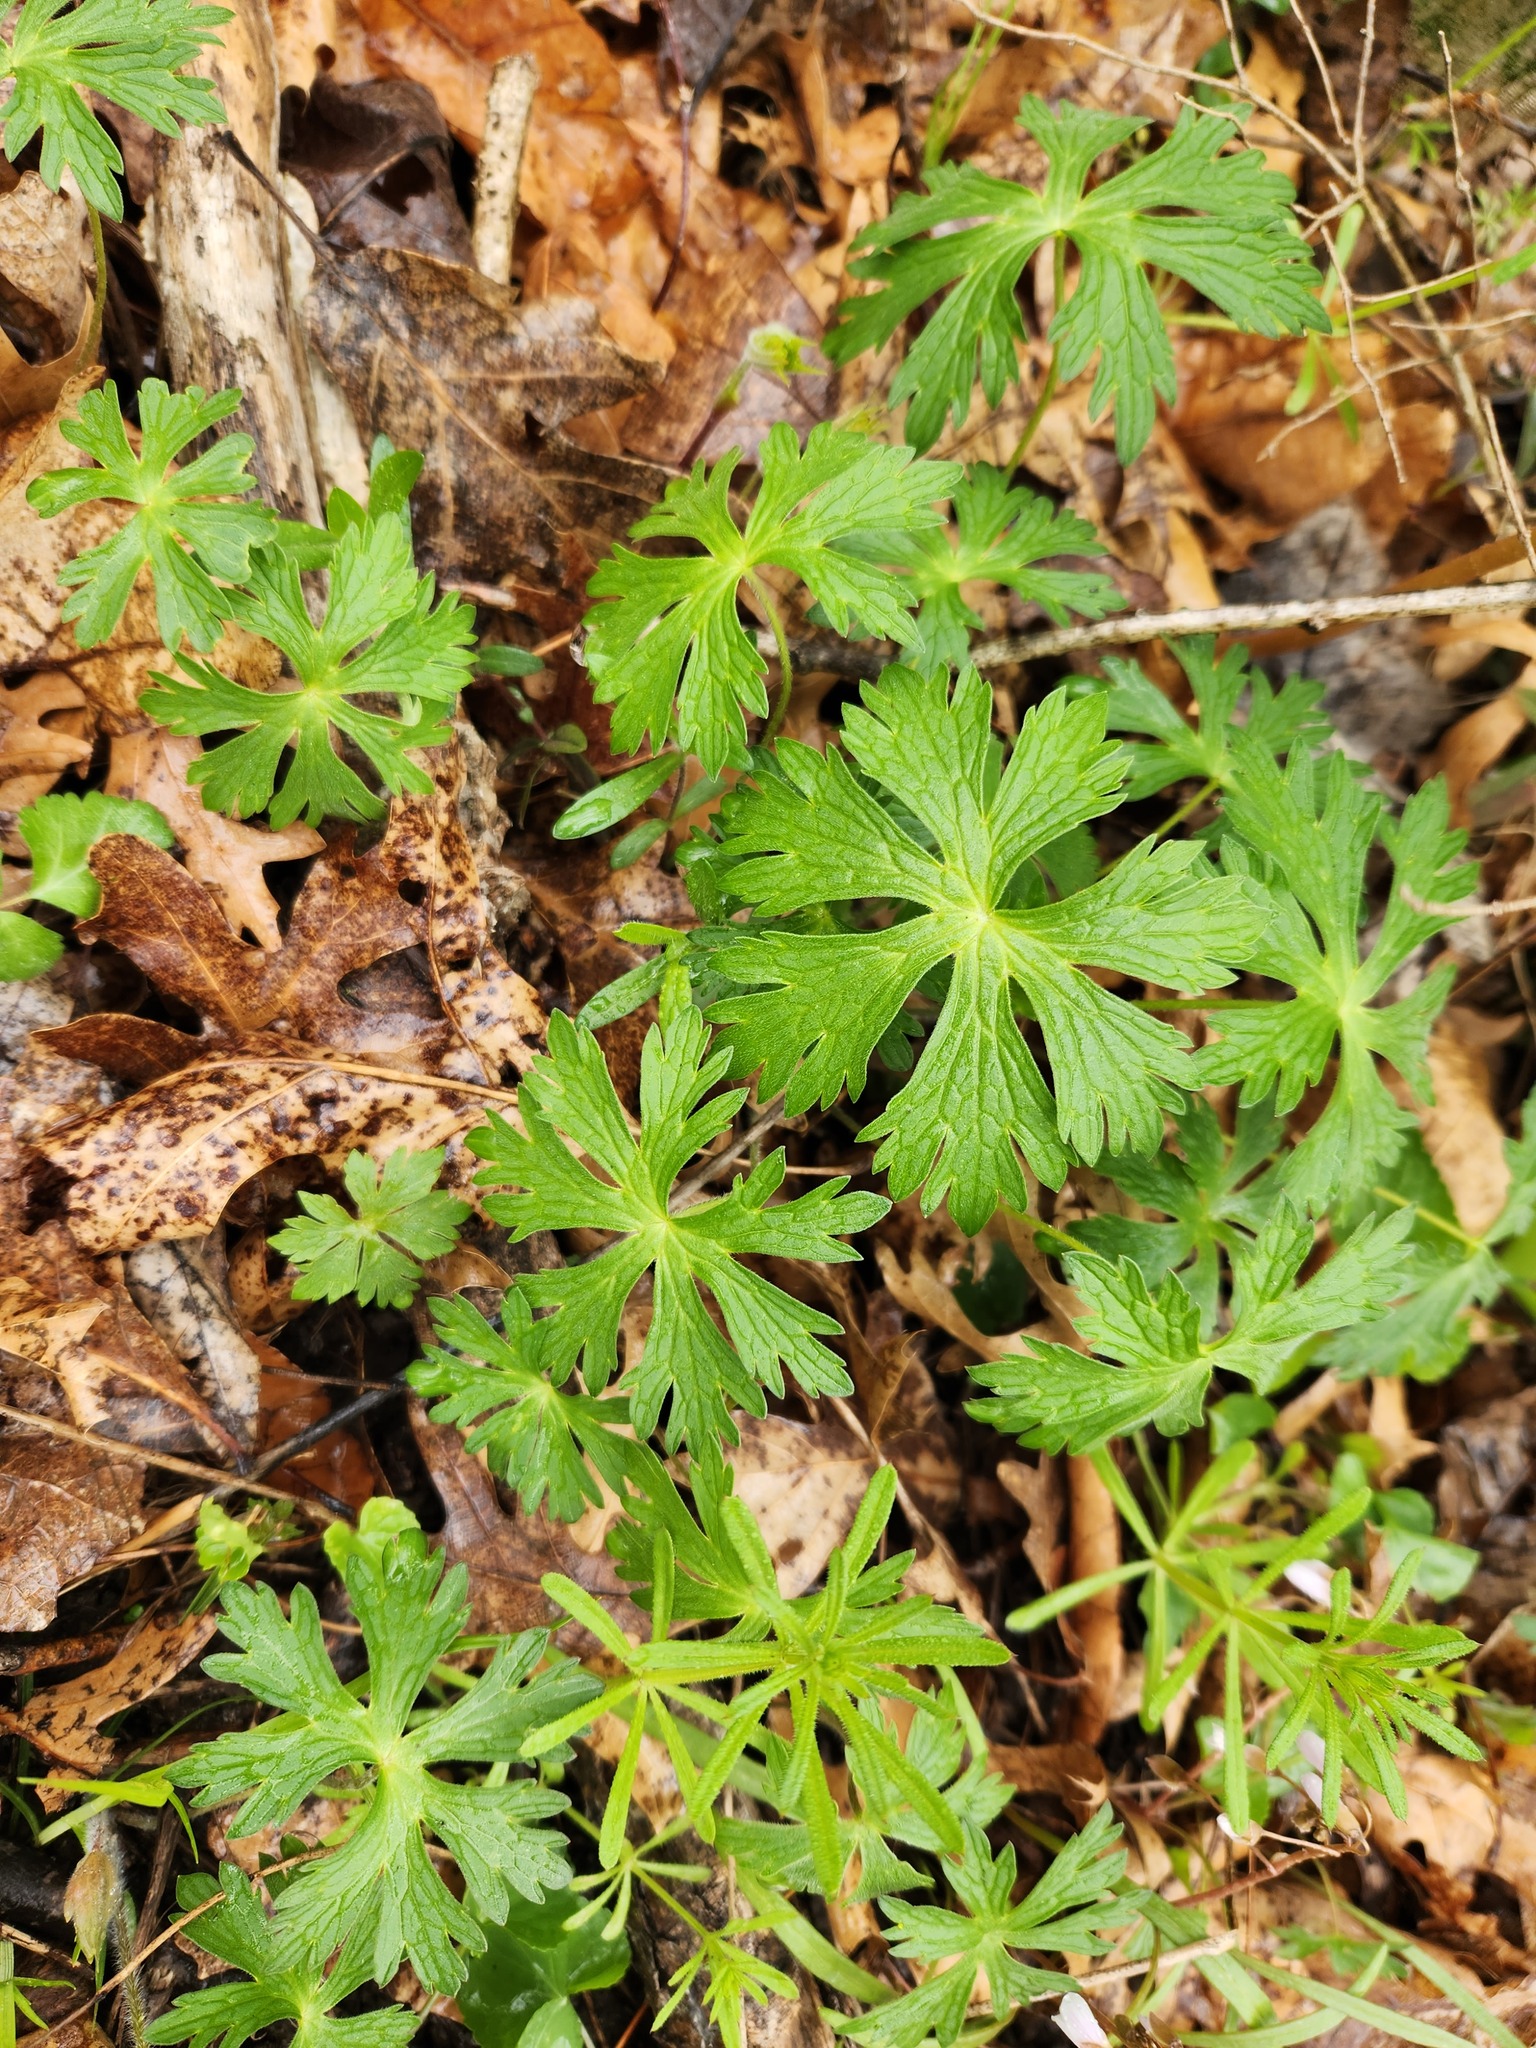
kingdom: Plantae
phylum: Tracheophyta
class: Magnoliopsida
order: Geraniales
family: Geraniaceae
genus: Geranium
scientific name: Geranium maculatum
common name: Spotted geranium
